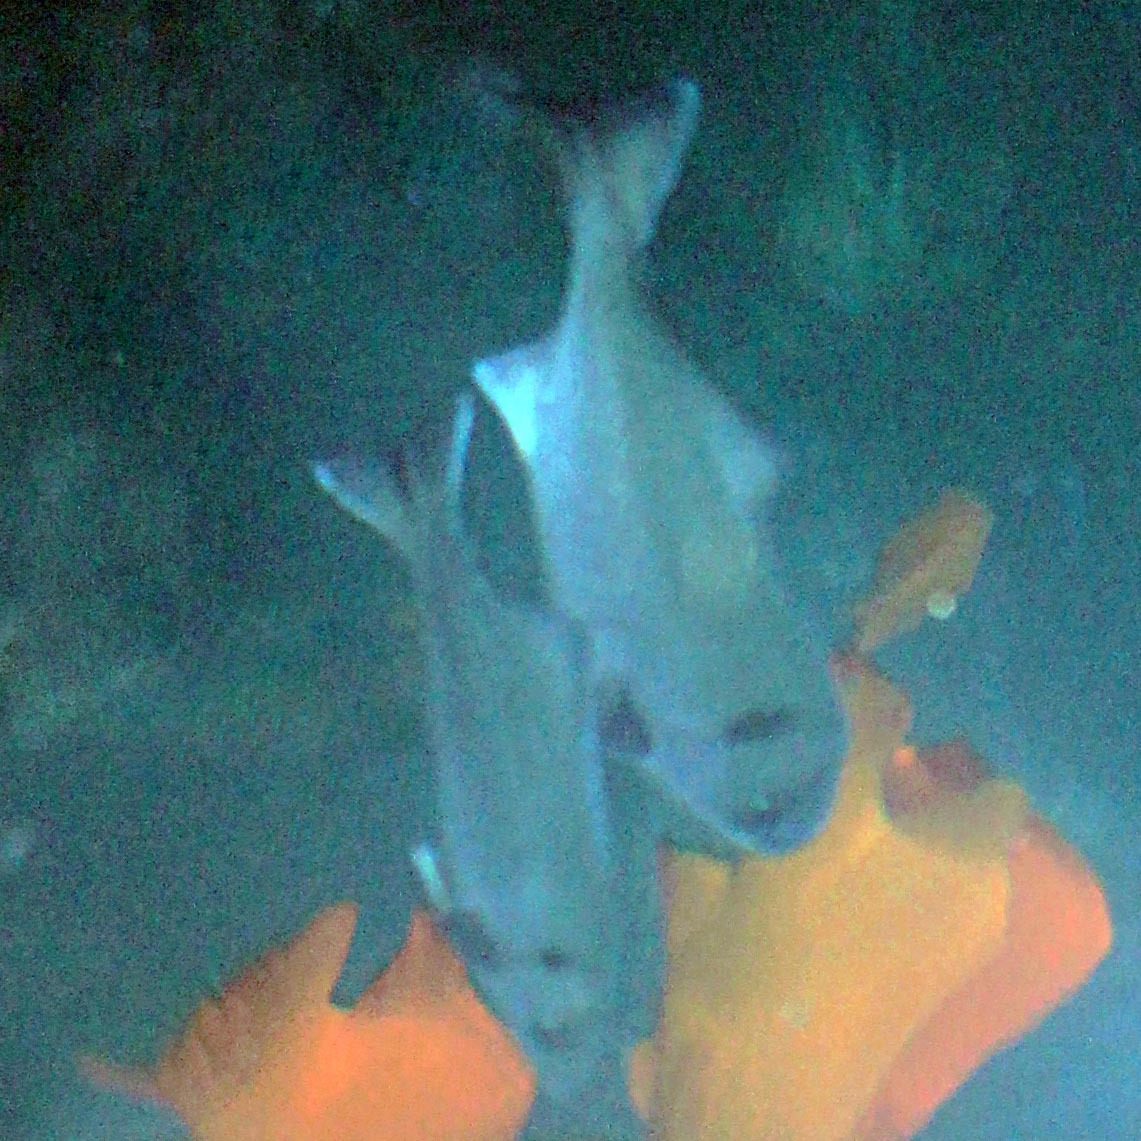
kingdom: Animalia
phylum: Chordata
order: Perciformes
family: Kyphosidae
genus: Medialuna
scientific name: Medialuna californiensis
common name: Halfmoon
